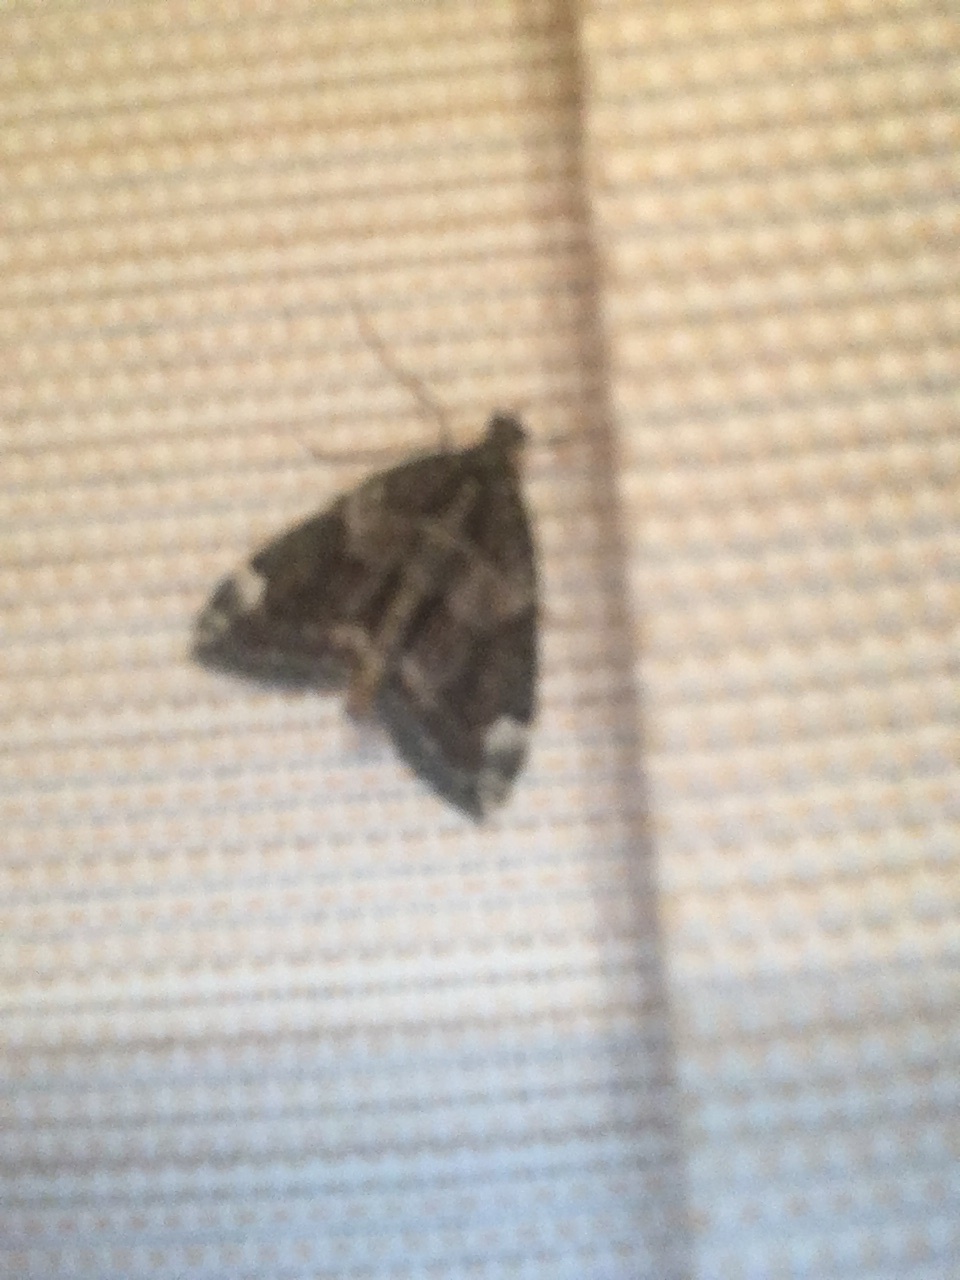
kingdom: Animalia
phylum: Arthropoda
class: Insecta
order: Lepidoptera
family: Geometridae
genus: Chloroclysta
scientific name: Chloroclysta siterata
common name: Red-green carpet
